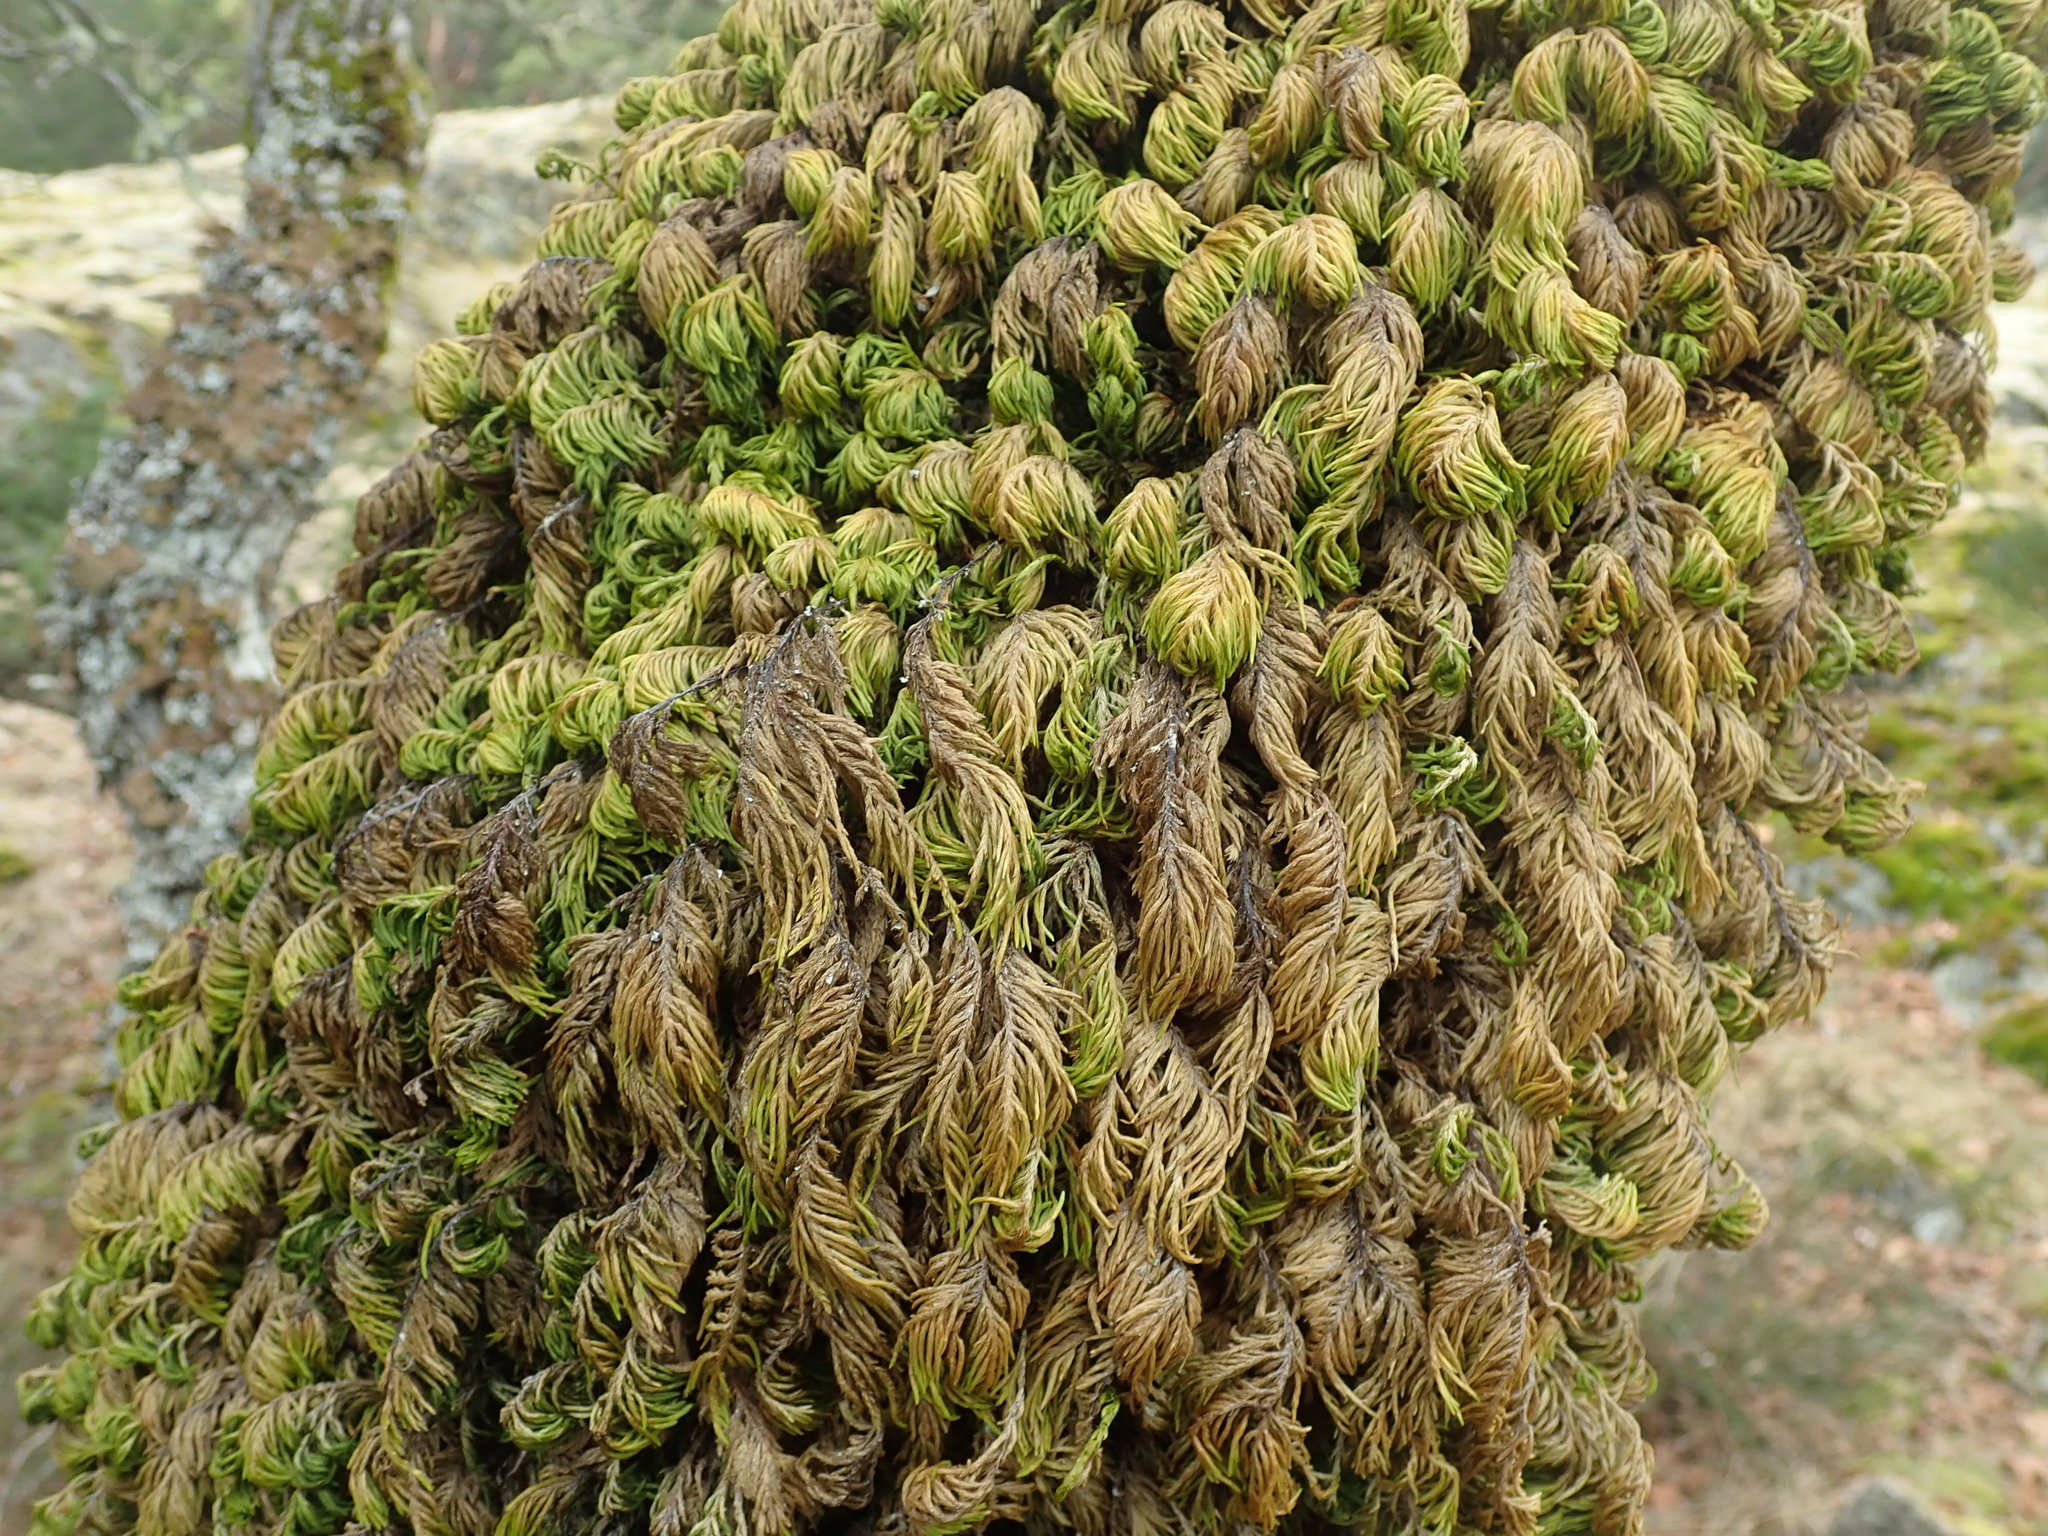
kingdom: Plantae
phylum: Bryophyta
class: Bryopsida
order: Hypnales
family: Cryphaeaceae
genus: Dendroalsia
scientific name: Dendroalsia abietina
